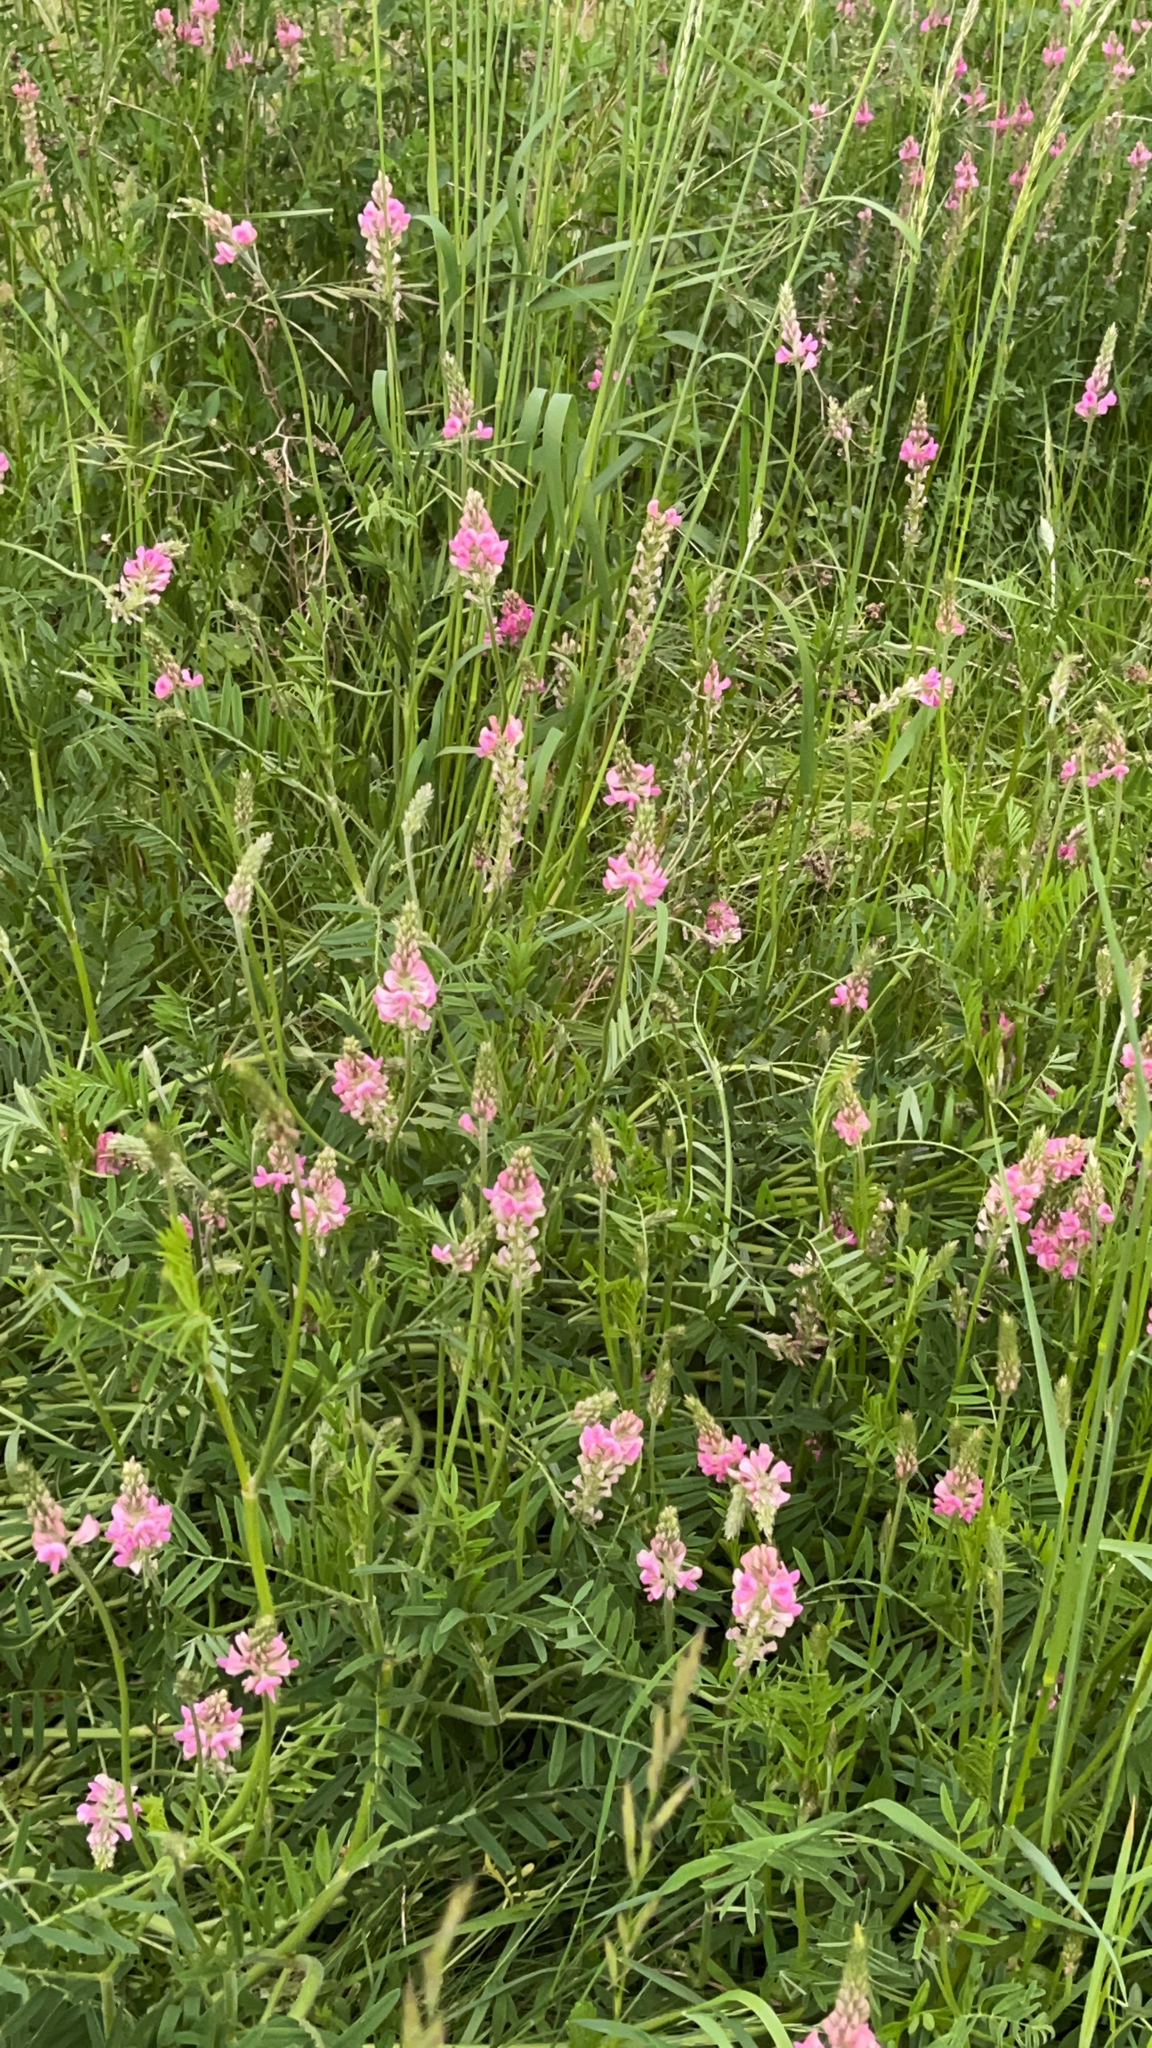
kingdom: Plantae
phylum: Tracheophyta
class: Magnoliopsida
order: Fabales
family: Fabaceae
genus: Onobrychis
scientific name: Onobrychis viciifolia
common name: Sainfoin
